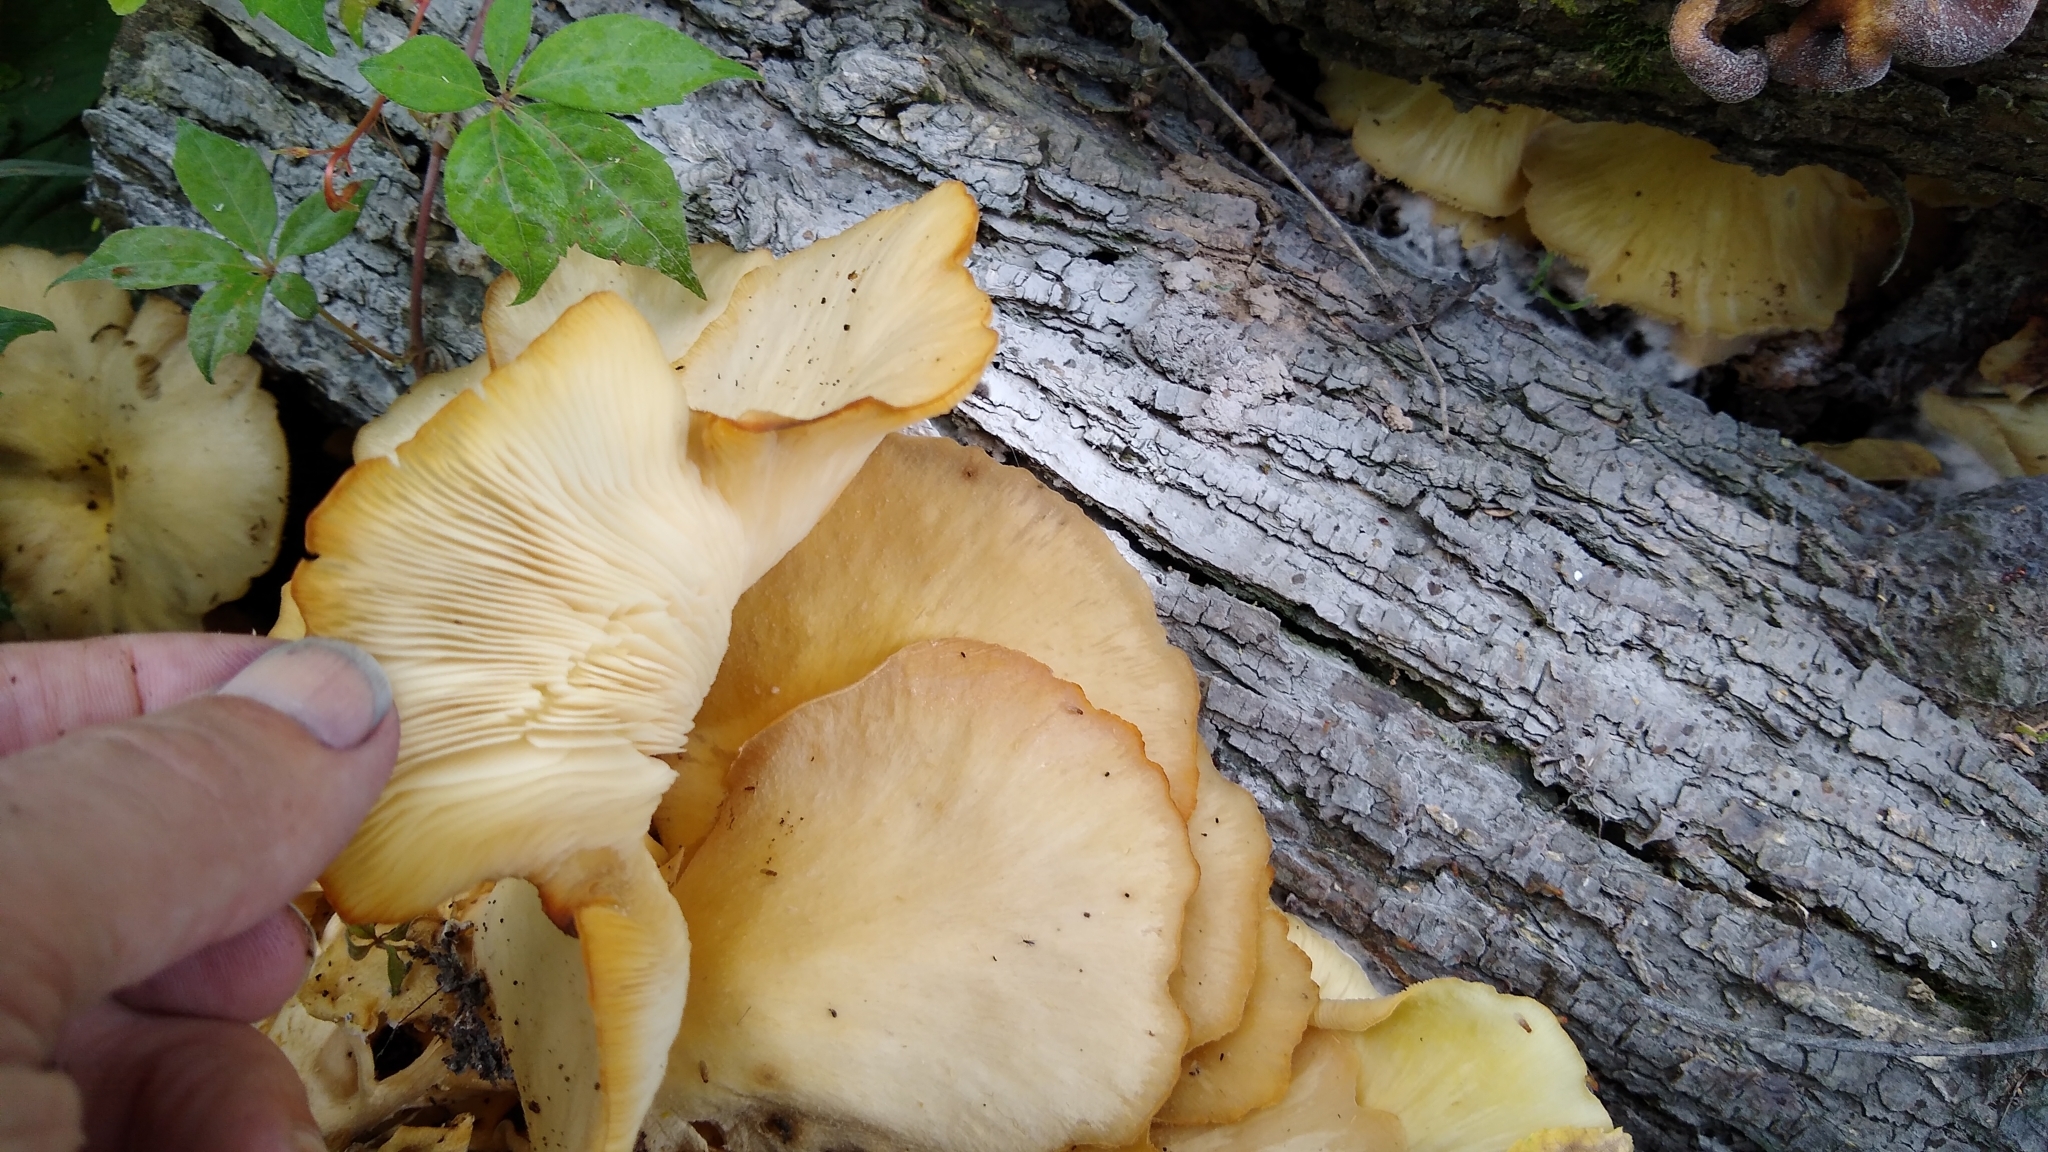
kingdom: Fungi
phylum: Basidiomycota
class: Agaricomycetes
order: Agaricales
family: Pleurotaceae
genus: Pleurotus
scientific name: Pleurotus pulmonarius
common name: Pale oyster
